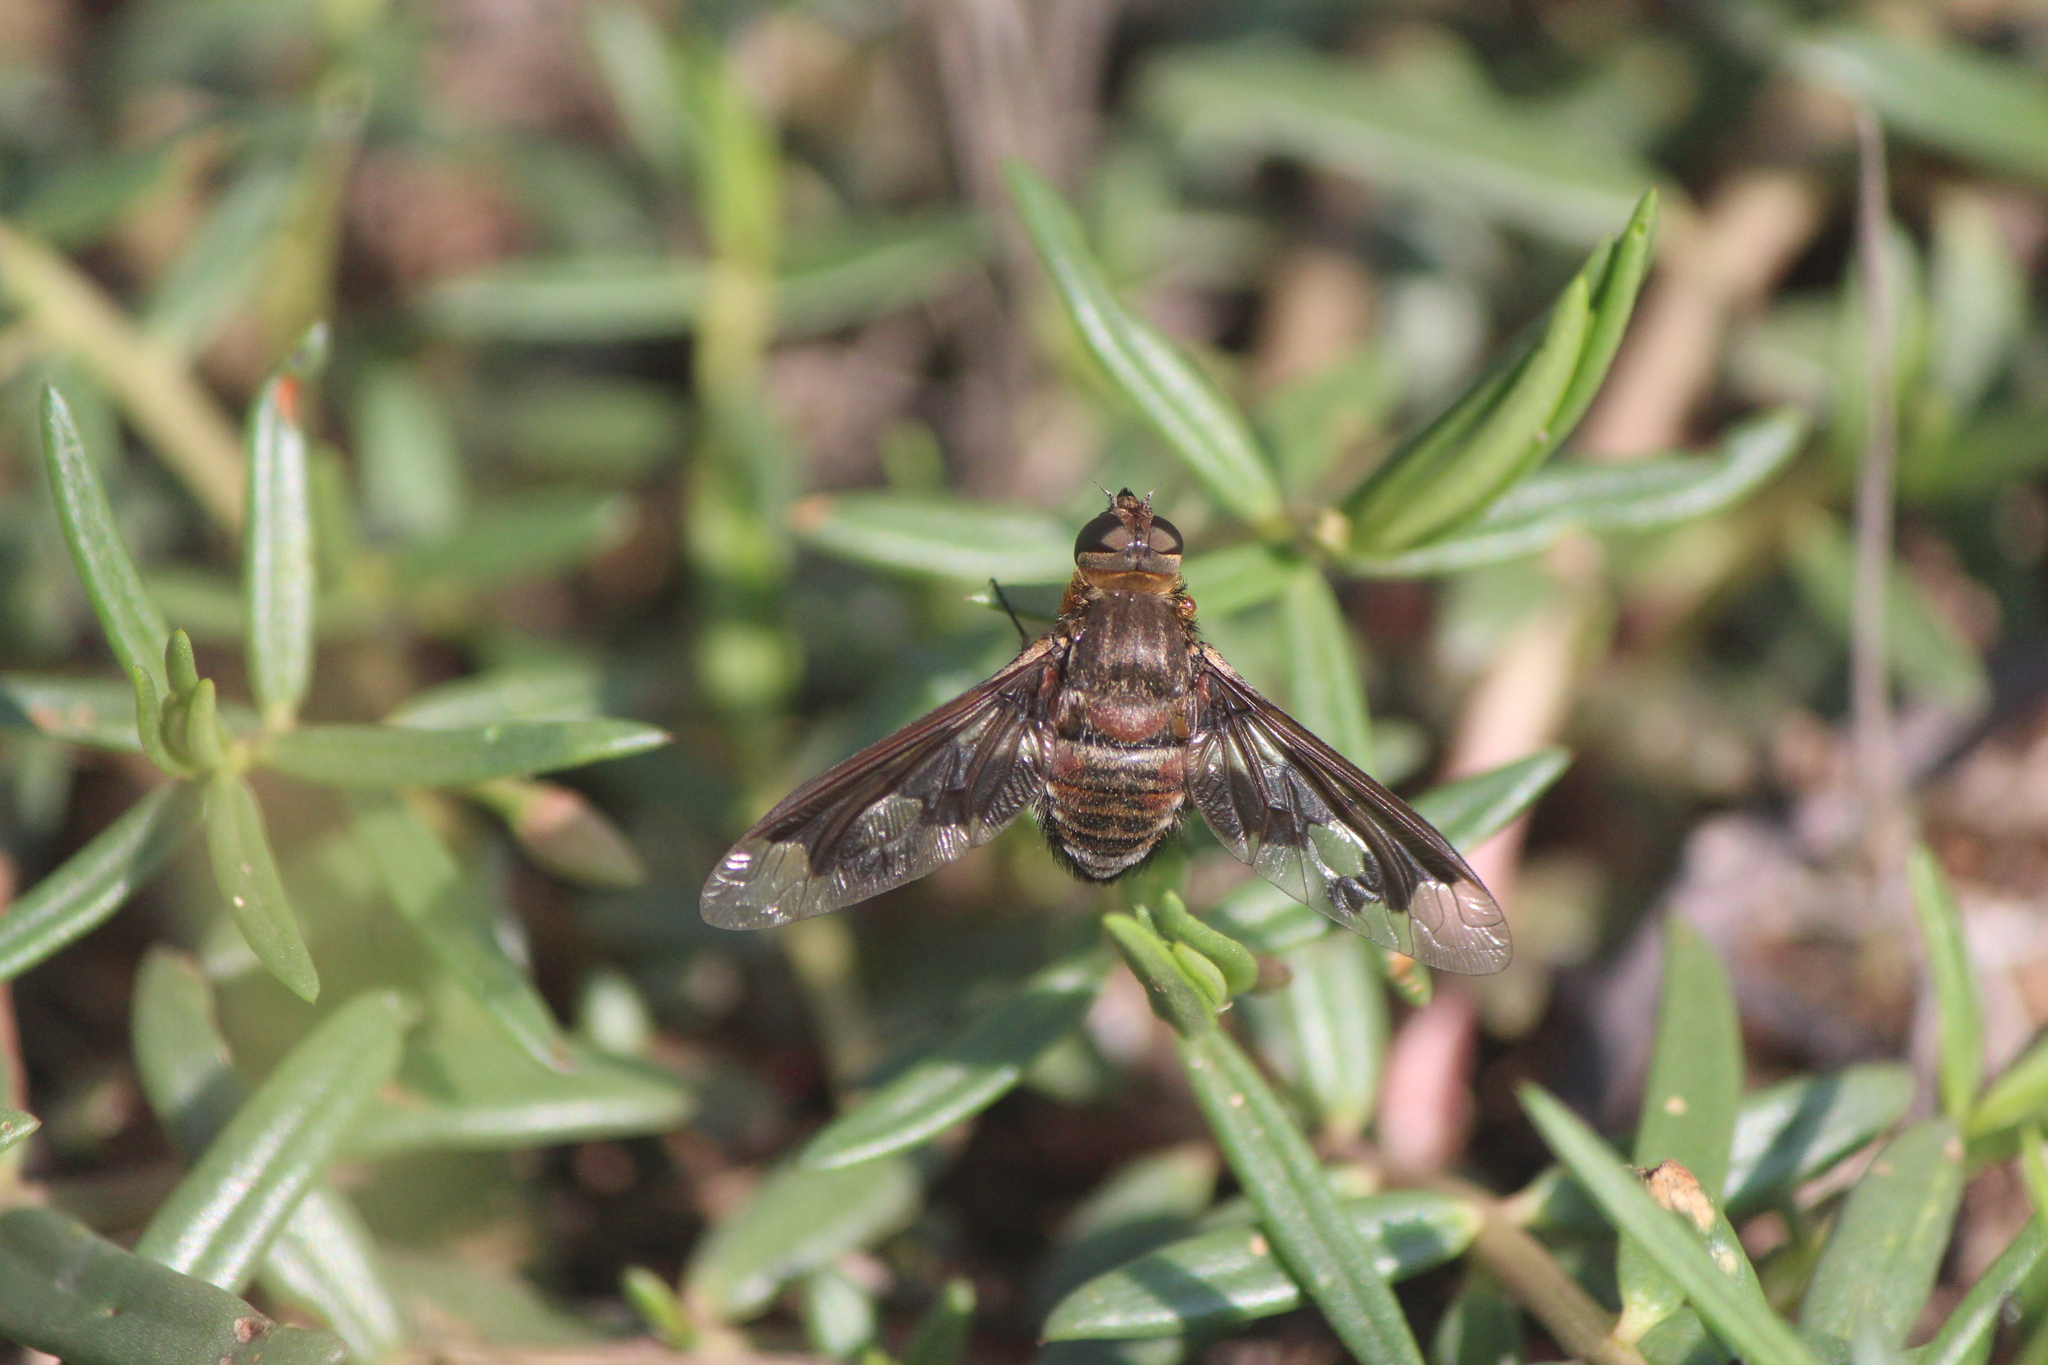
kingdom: Animalia
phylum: Arthropoda
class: Insecta
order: Diptera
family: Bombyliidae
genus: Exoprosopa
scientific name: Exoprosopa pueblensis
